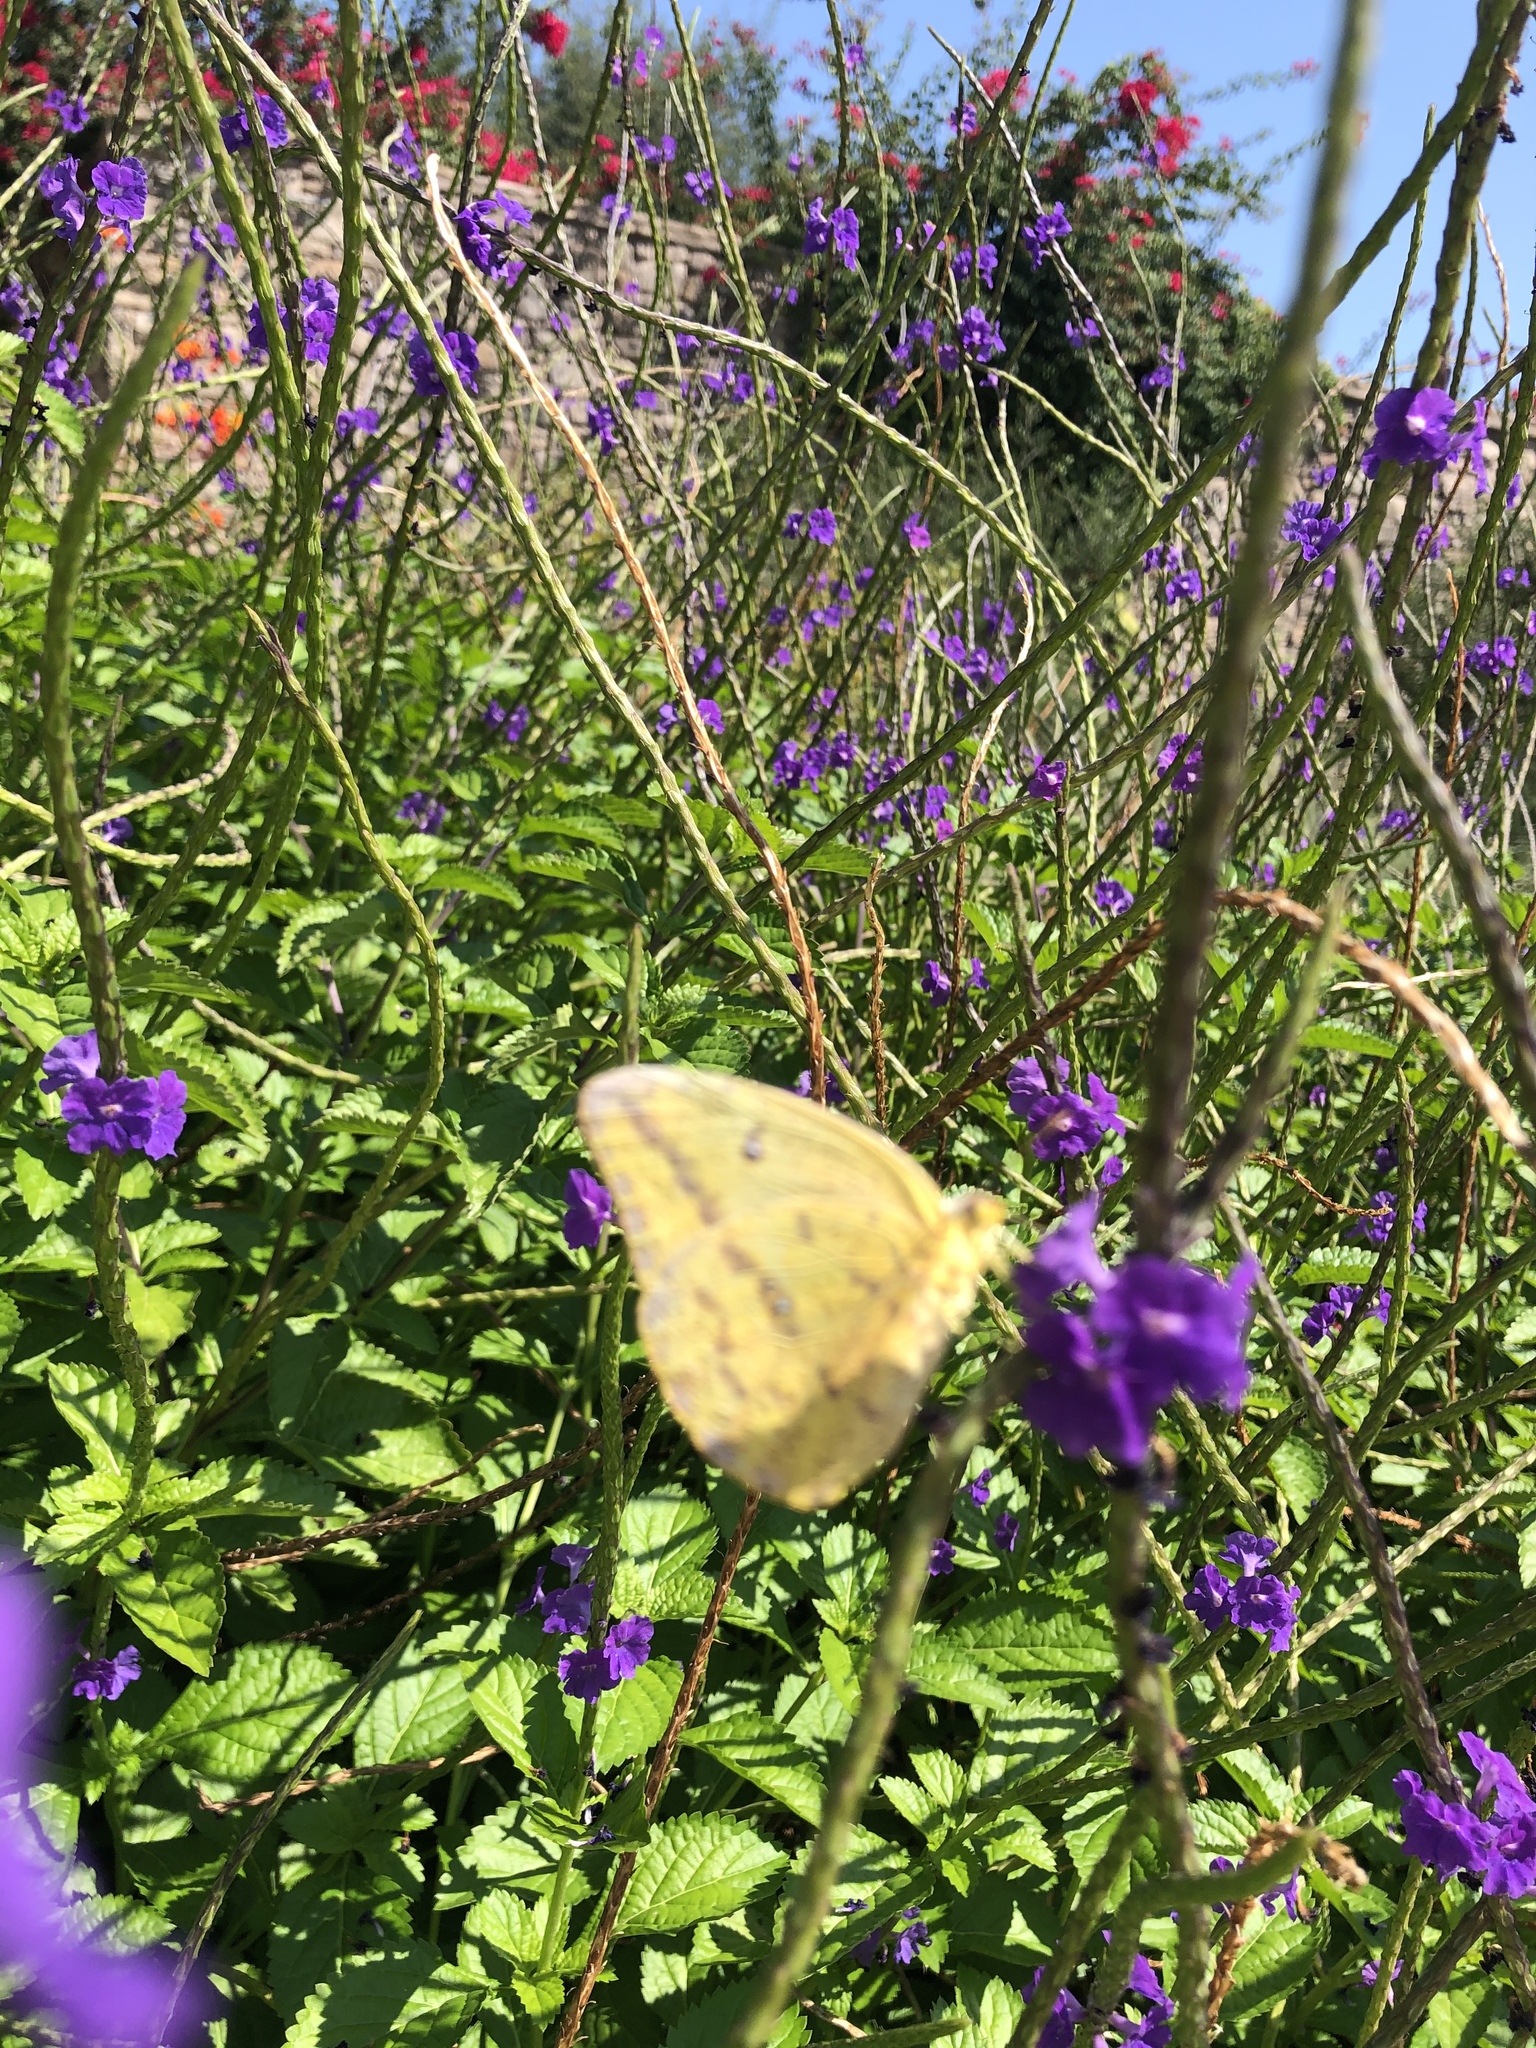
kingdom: Animalia
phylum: Arthropoda
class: Insecta
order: Lepidoptera
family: Pieridae
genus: Phoebis
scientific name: Phoebis agarithe
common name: Large orange sulphur
